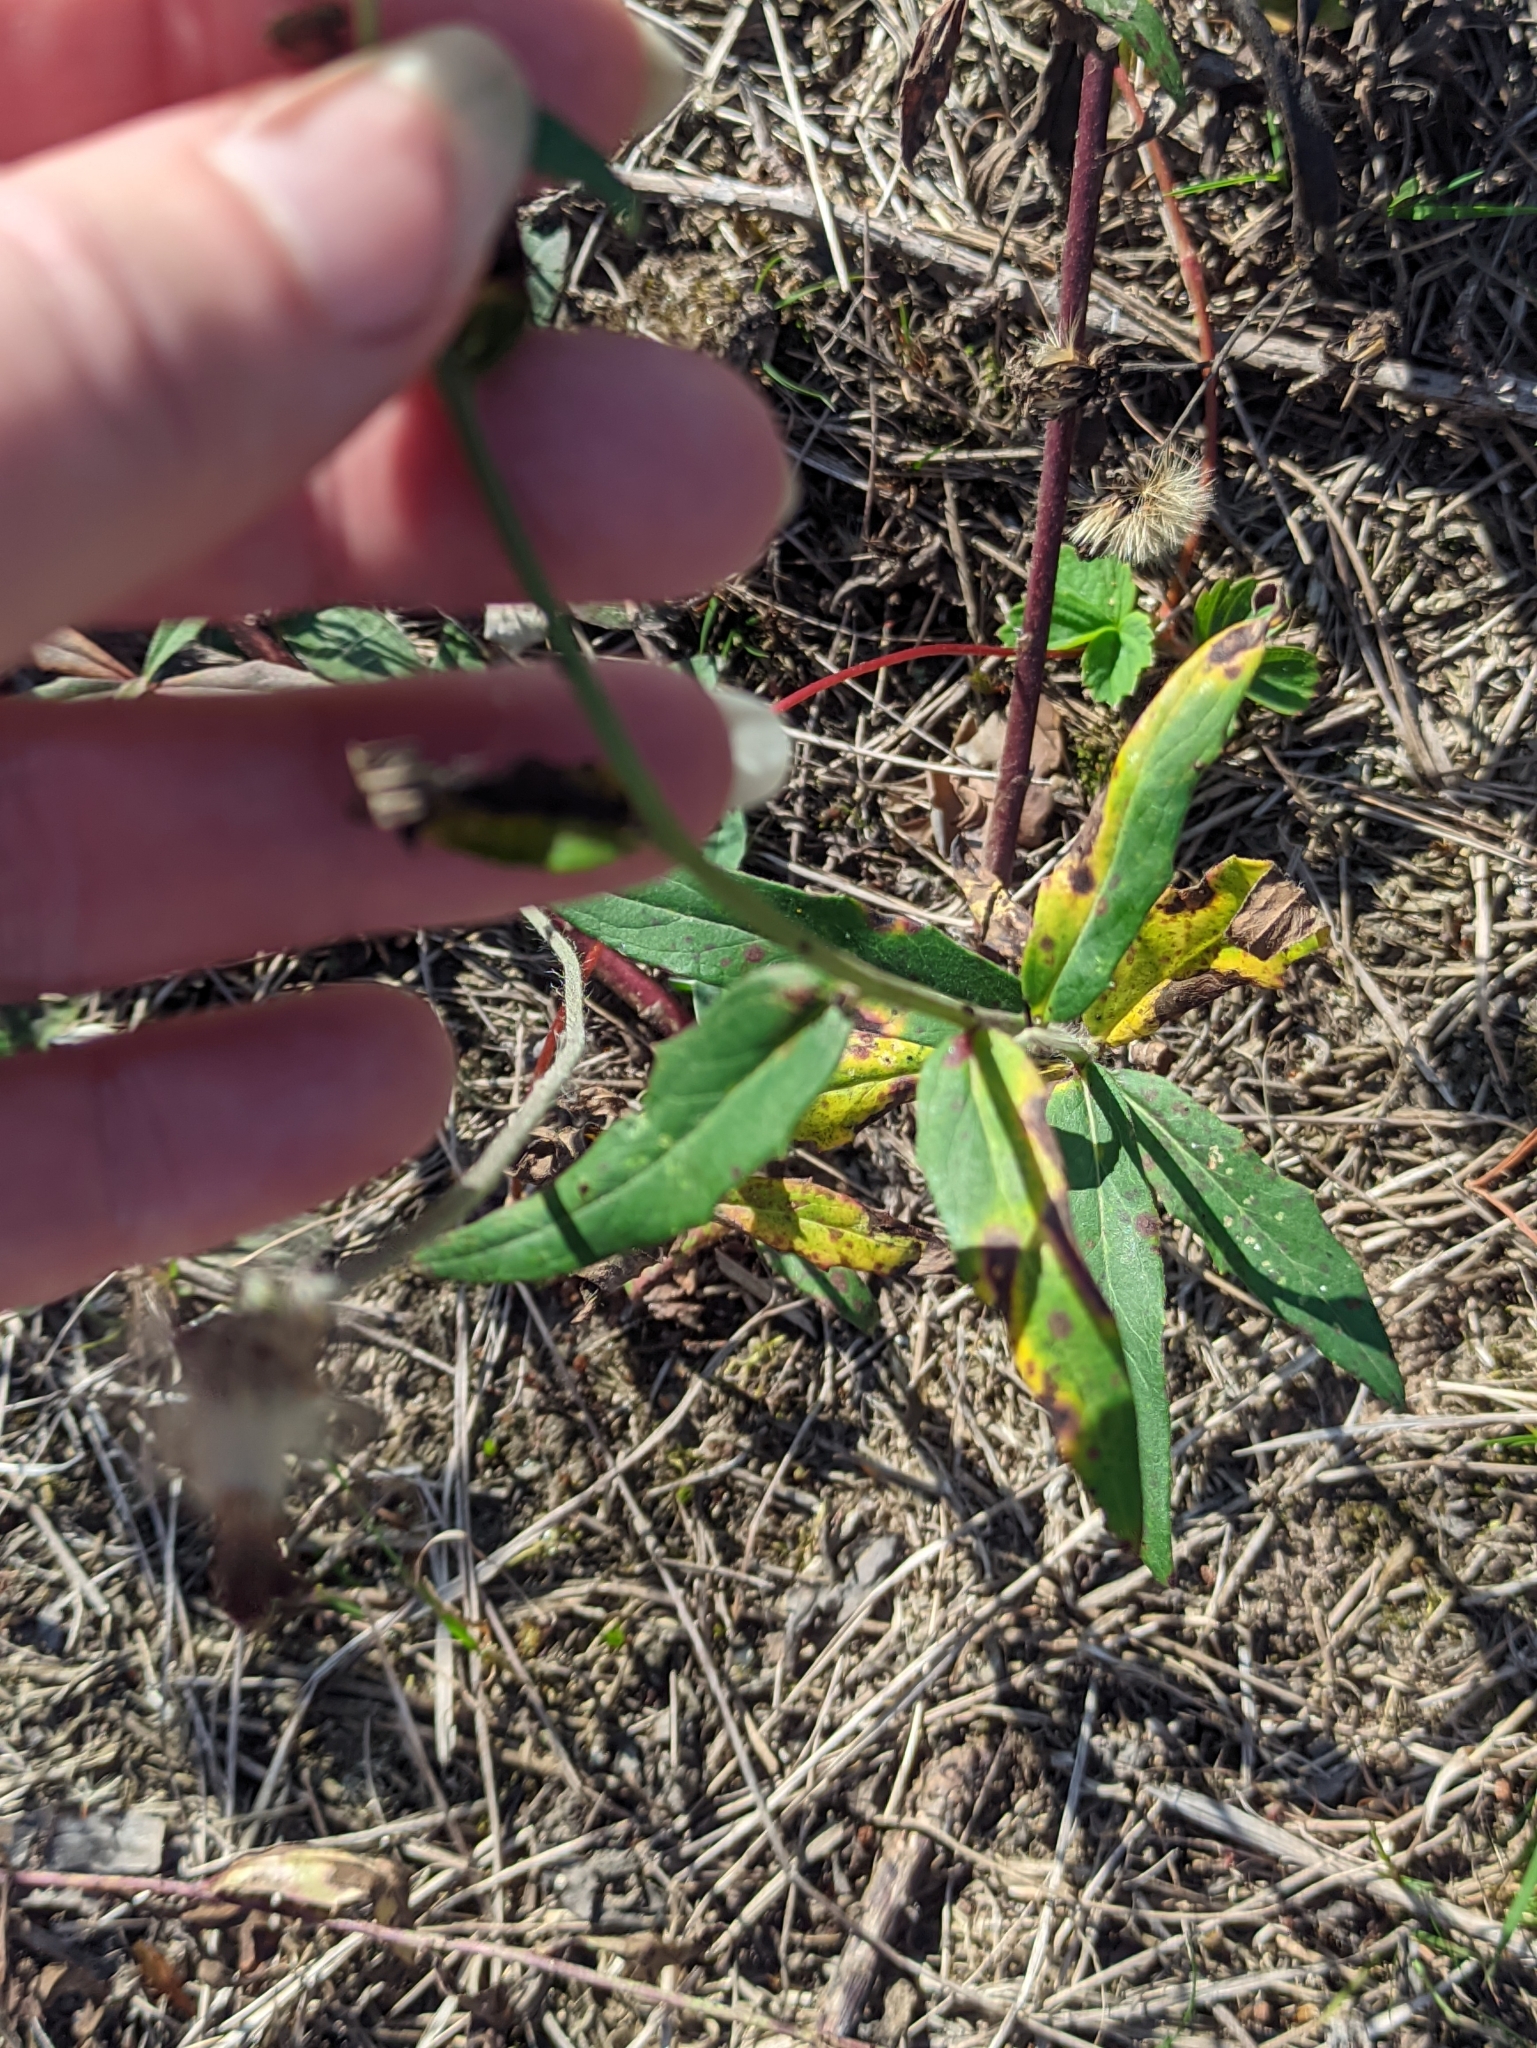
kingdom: Plantae
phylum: Tracheophyta
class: Magnoliopsida
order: Asterales
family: Asteraceae
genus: Hieracium
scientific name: Hieracium umbellatum
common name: Northern hawkweed
